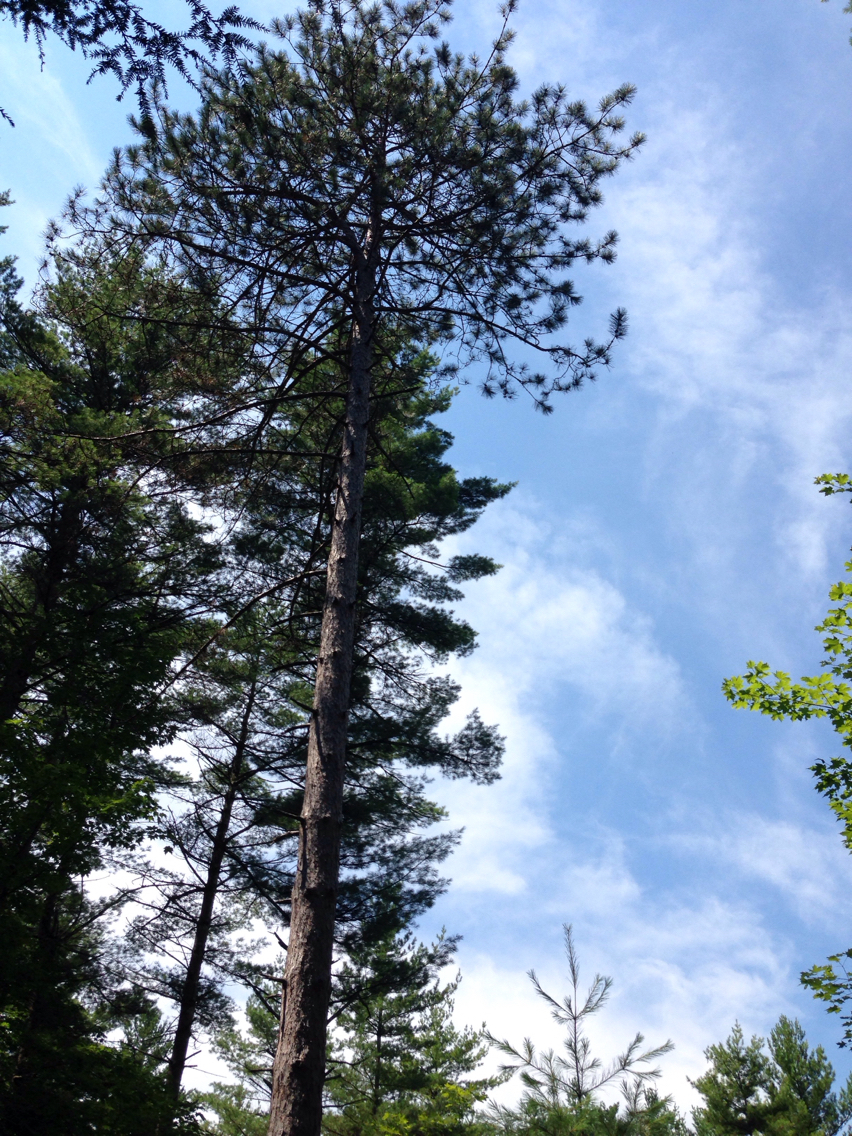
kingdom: Plantae
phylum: Tracheophyta
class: Pinopsida
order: Pinales
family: Pinaceae
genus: Pinus
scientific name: Pinus strobus
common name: Weymouth pine
